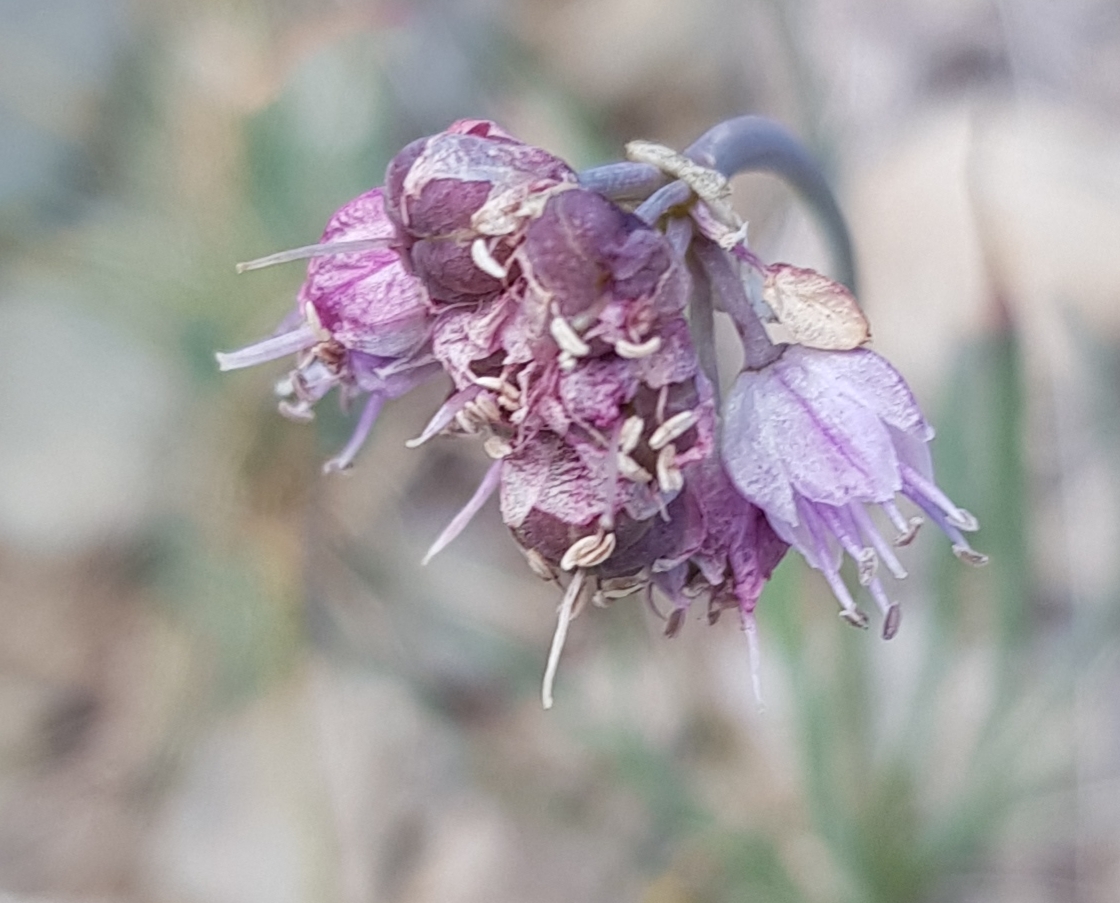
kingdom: Plantae
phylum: Tracheophyta
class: Liliopsida
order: Asparagales
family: Amaryllidaceae
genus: Allium
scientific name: Allium senescens
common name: German garlic
